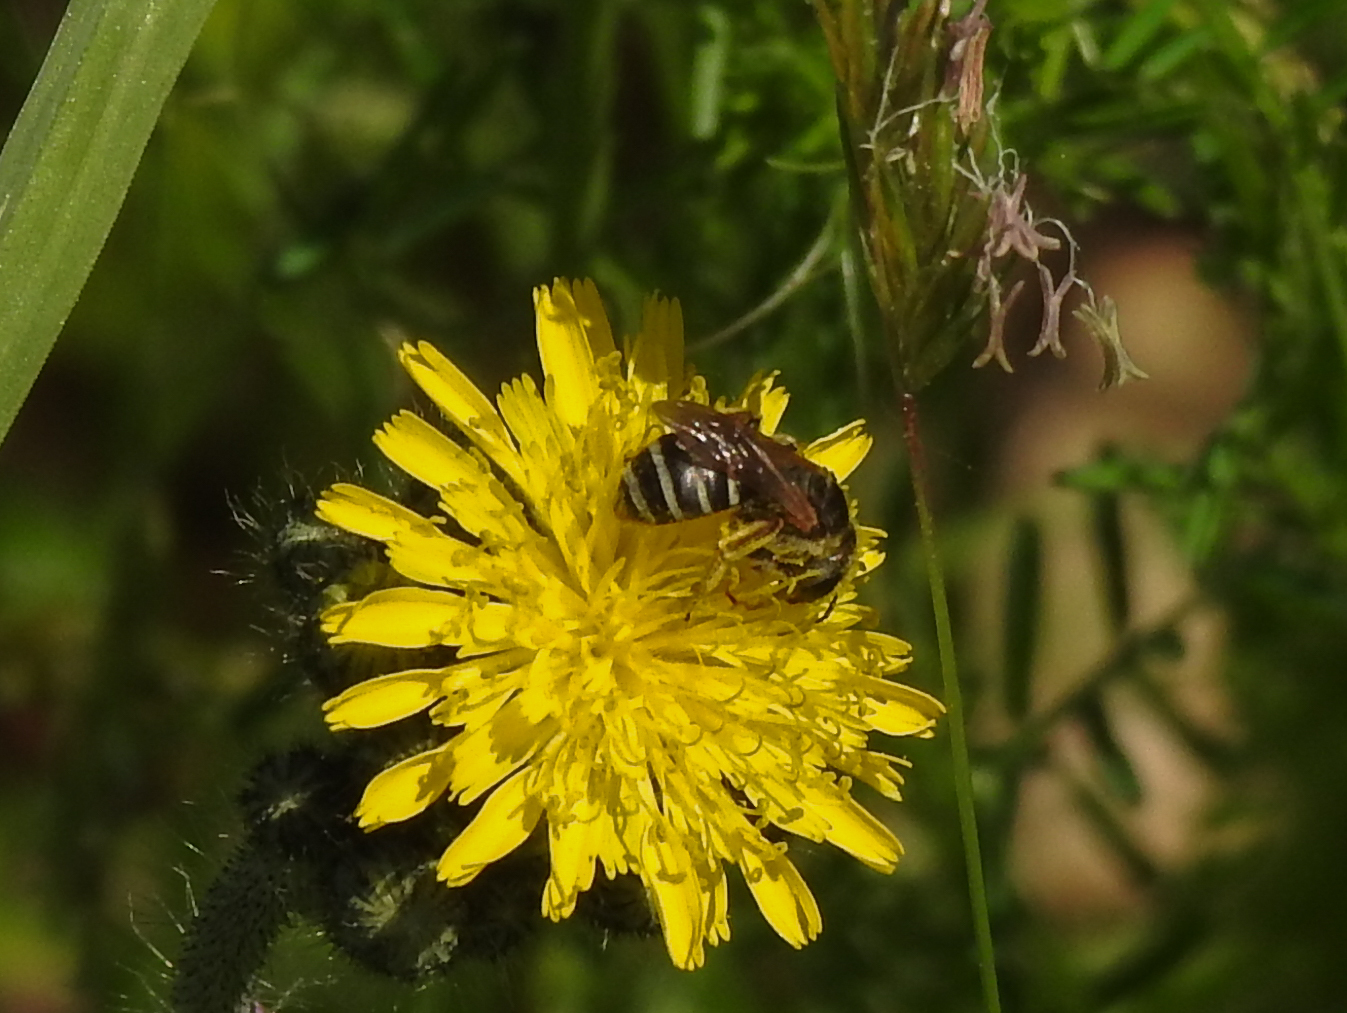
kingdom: Animalia
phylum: Arthropoda
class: Insecta
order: Hymenoptera
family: Halictidae
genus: Halictus
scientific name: Halictus ligatus
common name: Ligated furrow bee
